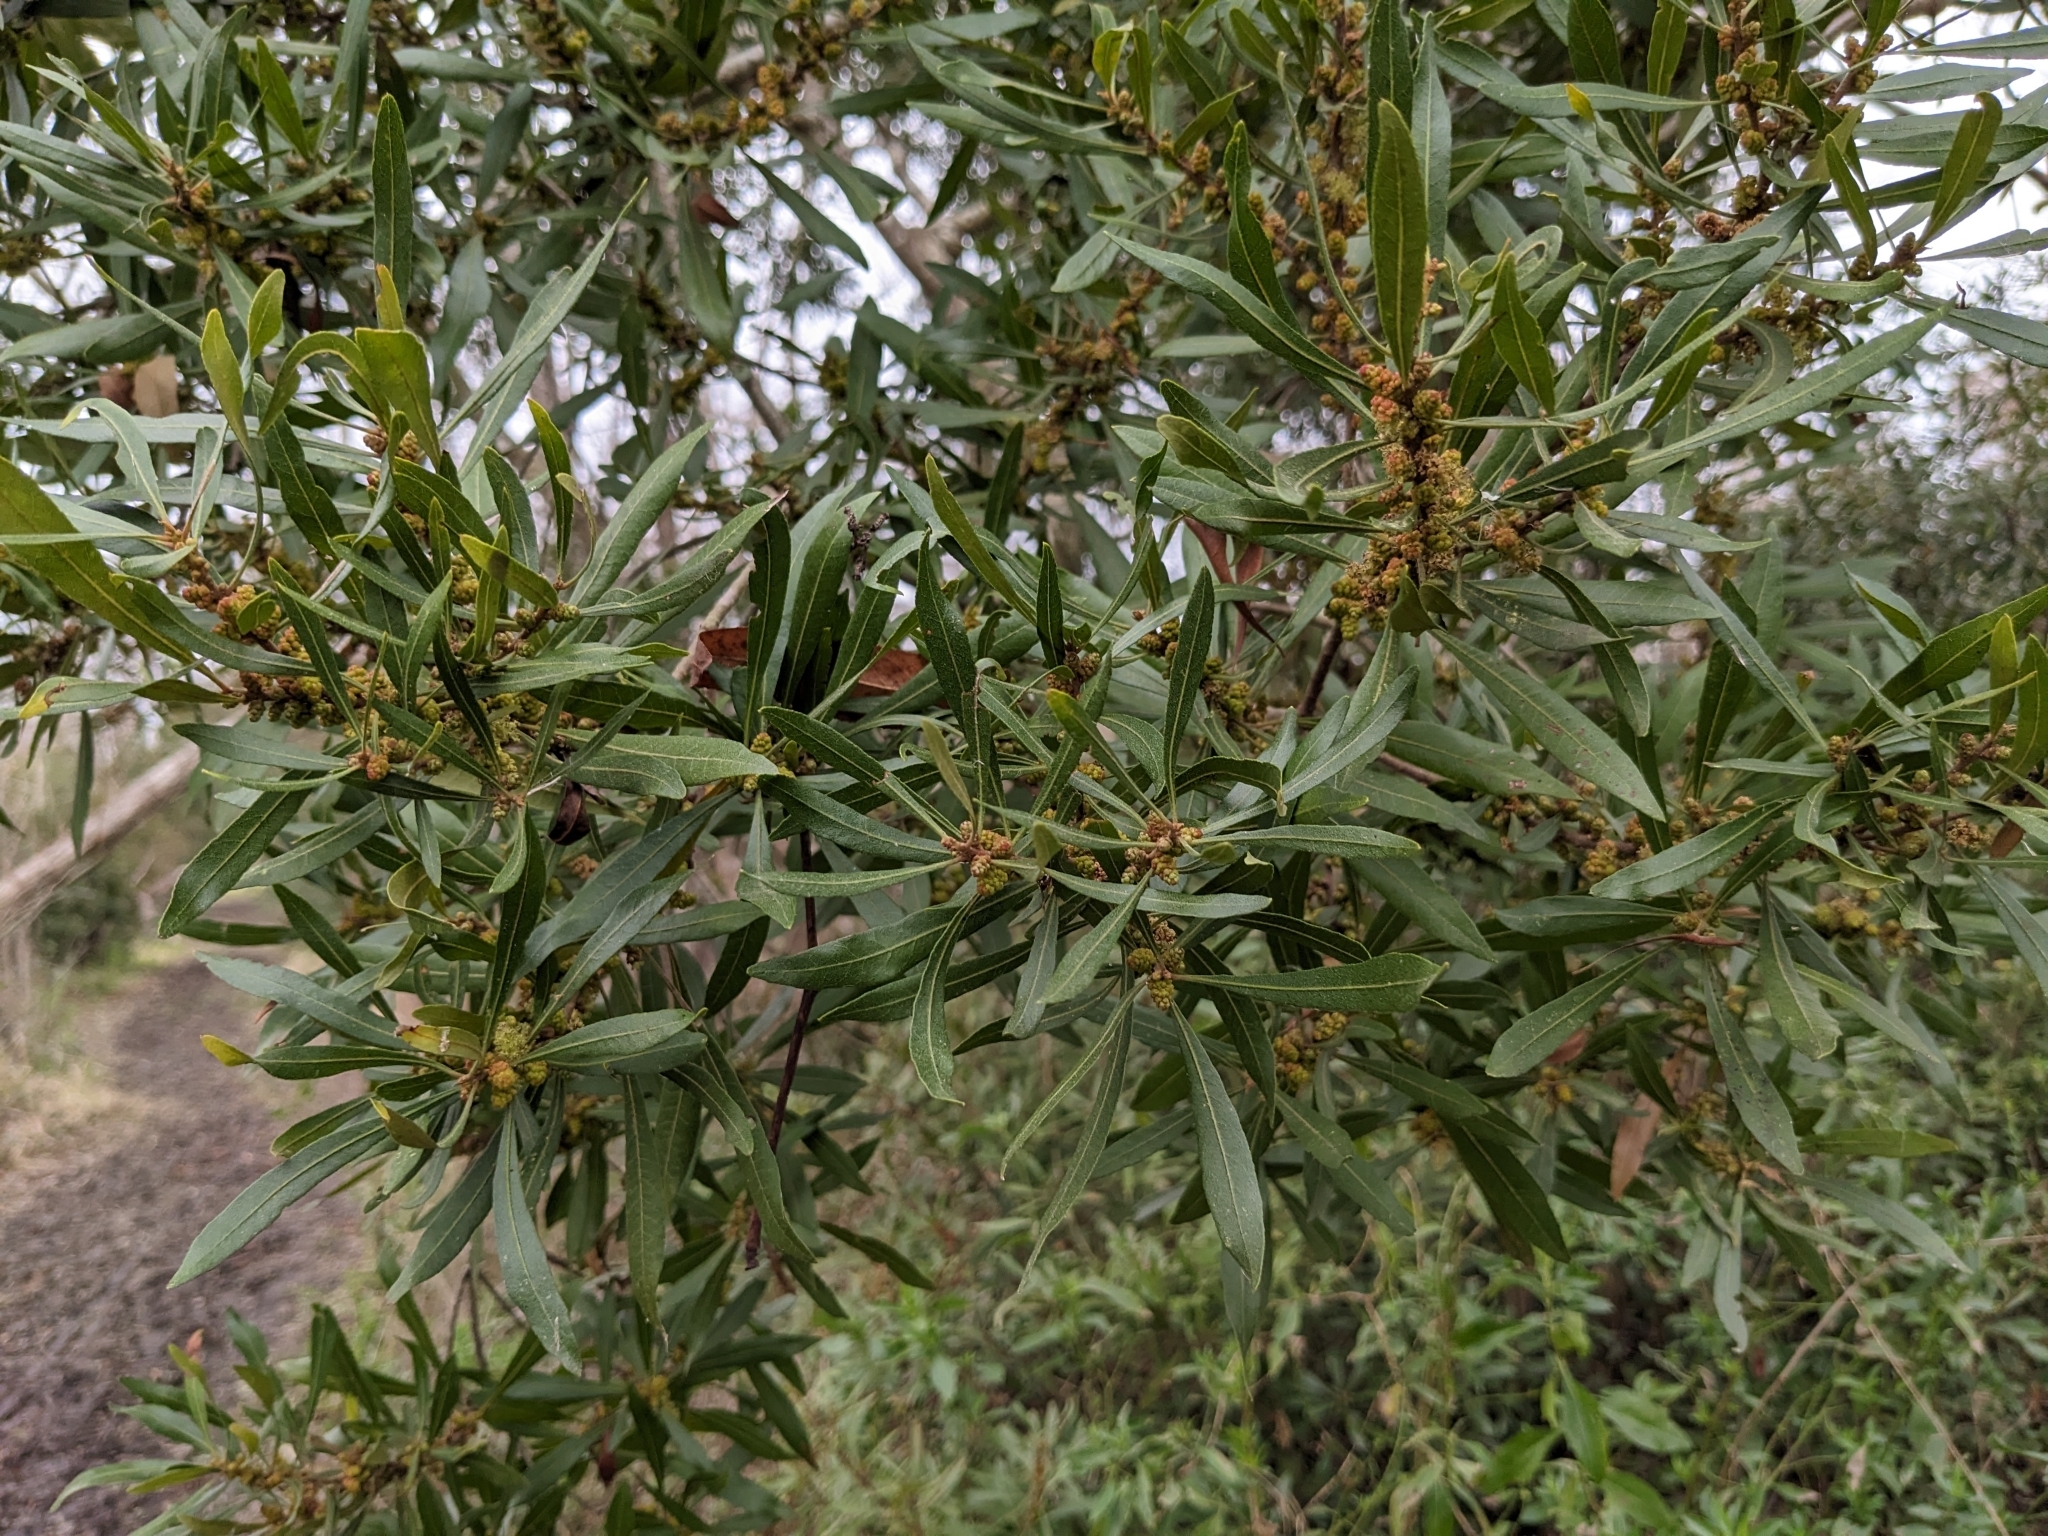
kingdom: Plantae
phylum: Tracheophyta
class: Magnoliopsida
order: Fagales
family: Myricaceae
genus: Morella
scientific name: Morella cerifera
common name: Wax myrtle
